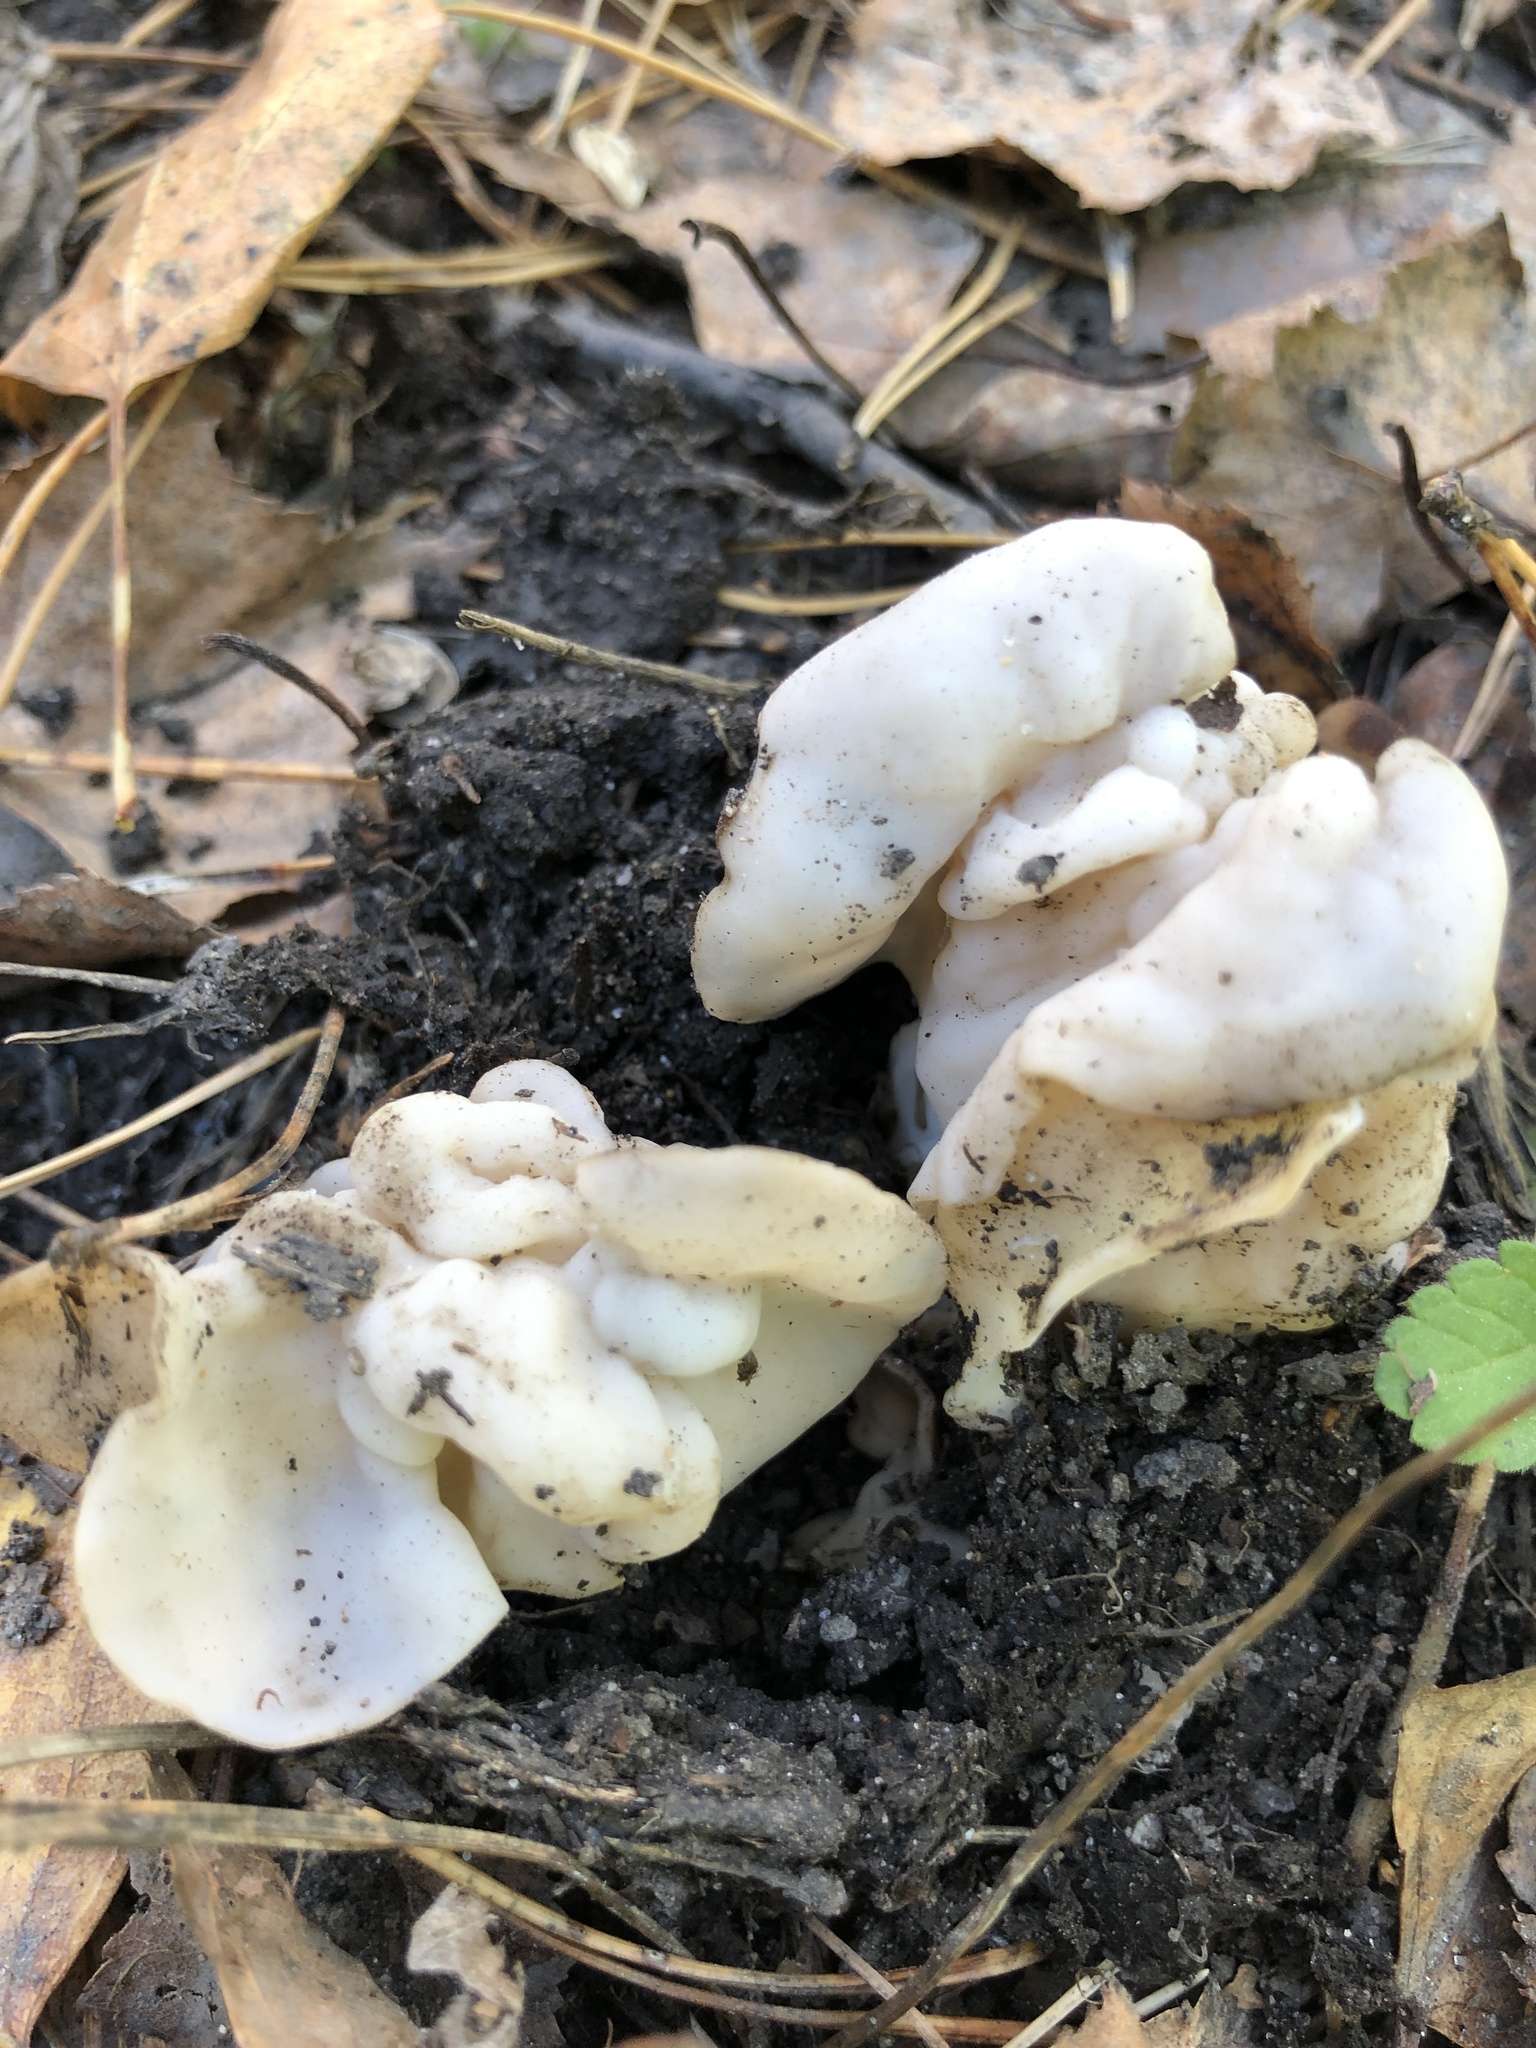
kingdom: Fungi
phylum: Ascomycota
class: Pezizomycetes
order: Pezizales
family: Helvellaceae
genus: Helvella
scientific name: Helvella crispa
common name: White saddle
